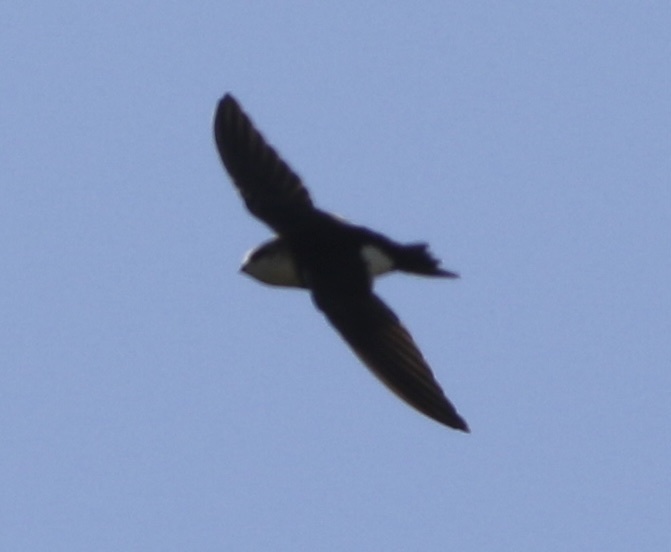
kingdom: Animalia
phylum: Chordata
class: Aves
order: Apodiformes
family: Apodidae
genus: Aeronautes
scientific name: Aeronautes saxatalis
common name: White-throated swift
